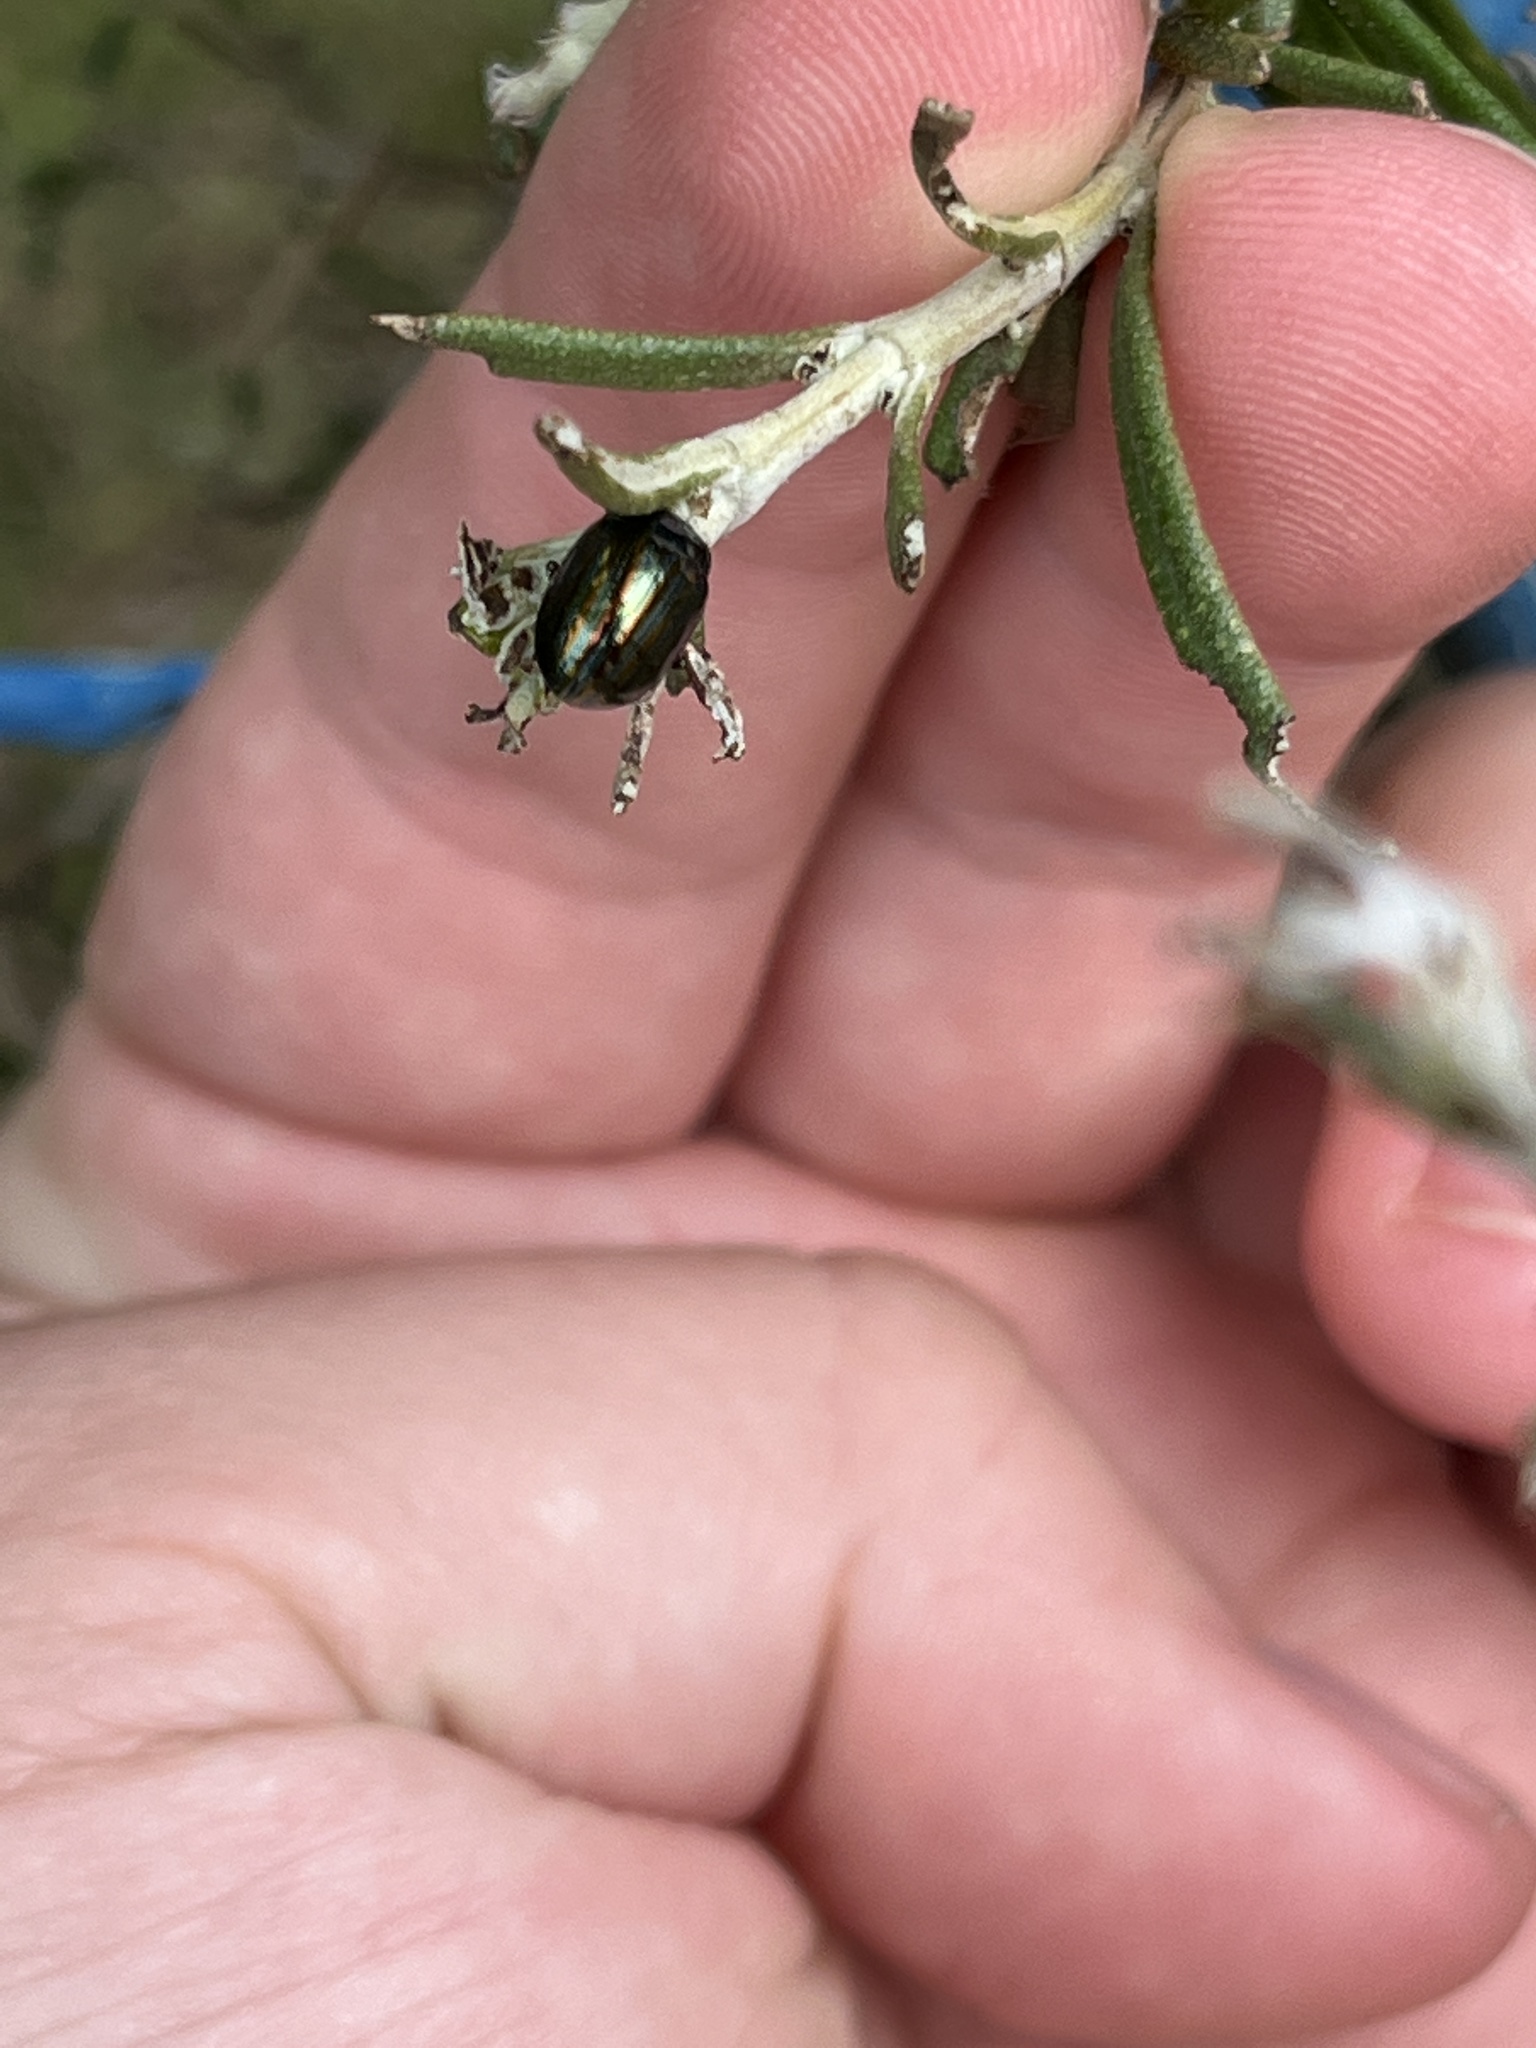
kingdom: Animalia
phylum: Arthropoda
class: Insecta
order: Coleoptera
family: Chrysomelidae
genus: Chrysolina
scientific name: Chrysolina americana
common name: Rosemary beetle
